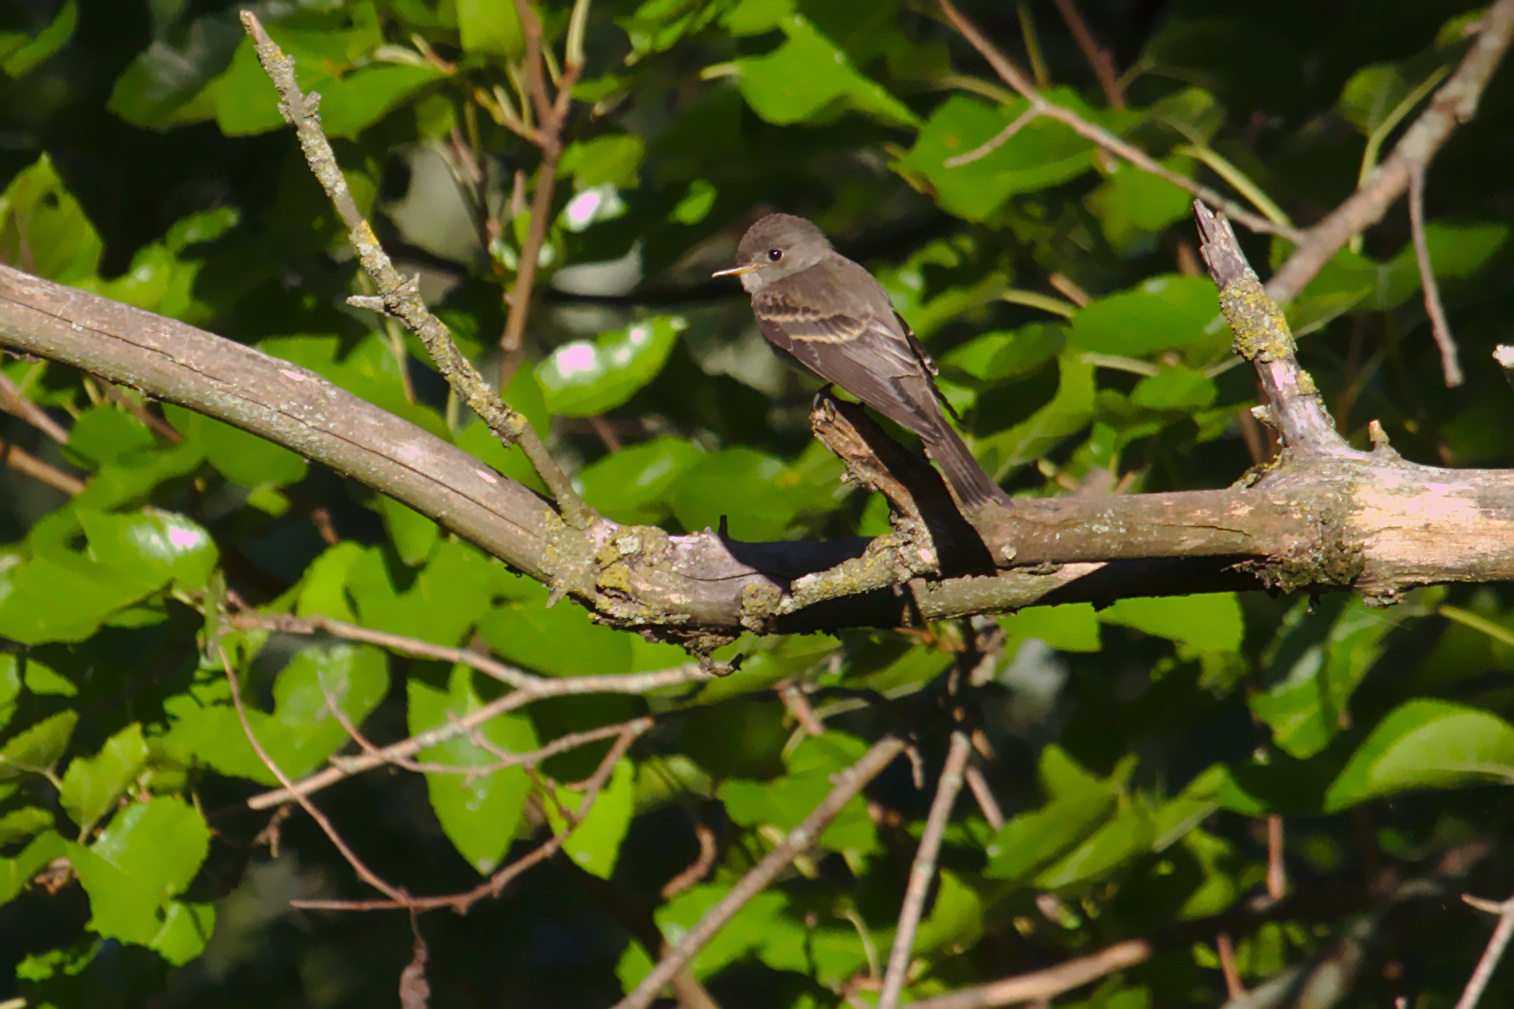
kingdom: Animalia
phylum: Chordata
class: Aves
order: Passeriformes
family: Tyrannidae
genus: Contopus
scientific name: Contopus virens
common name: Eastern wood-pewee
